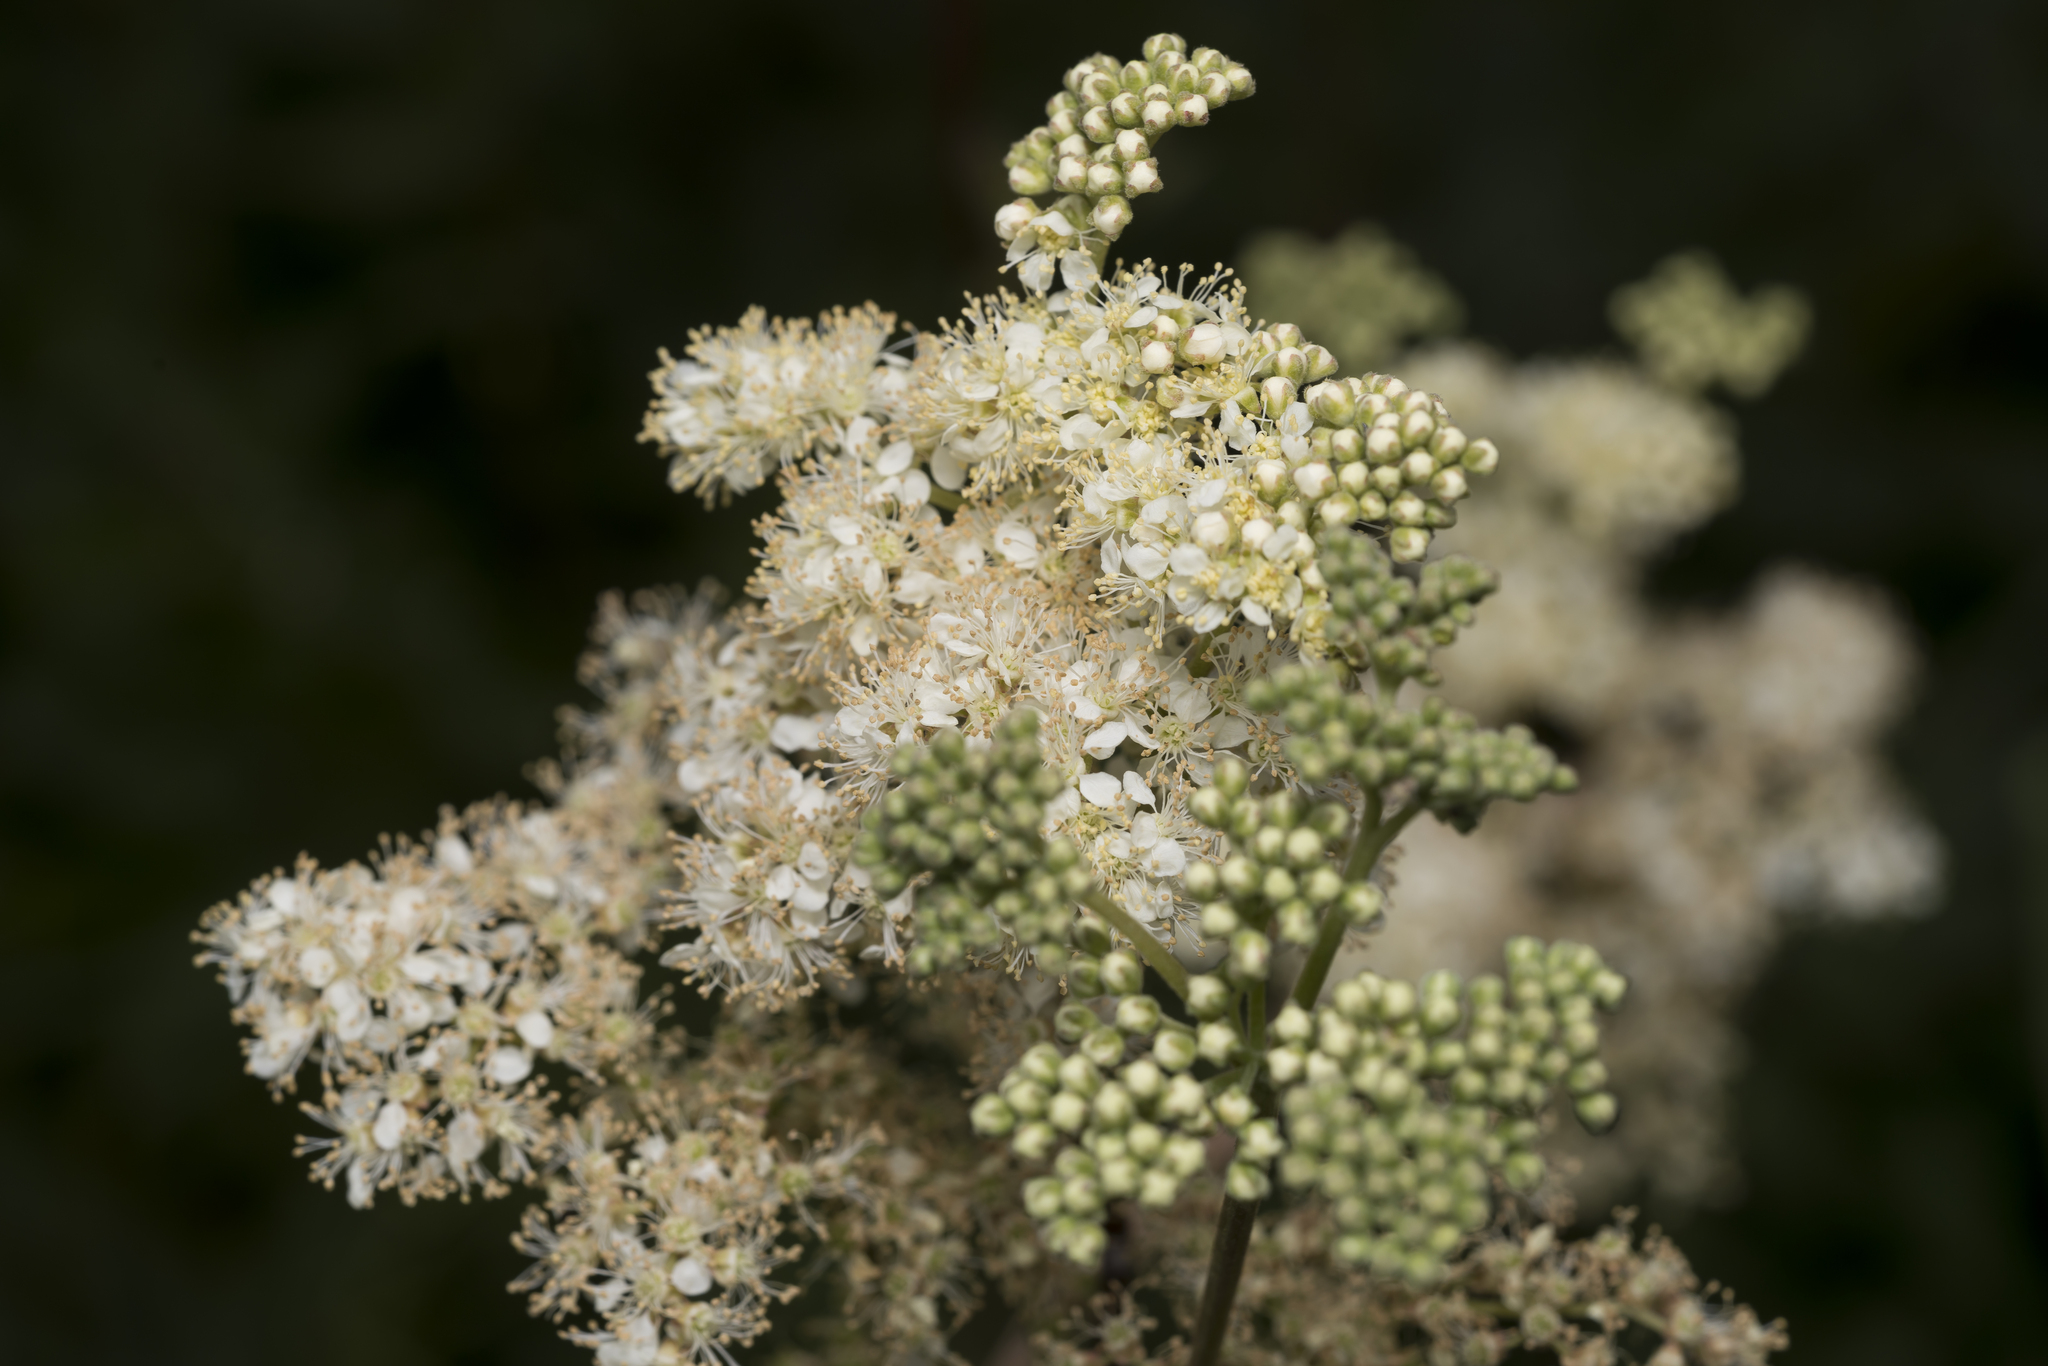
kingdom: Plantae
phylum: Tracheophyta
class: Magnoliopsida
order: Rosales
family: Rosaceae
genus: Filipendula
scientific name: Filipendula ulmaria
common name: Meadowsweet
